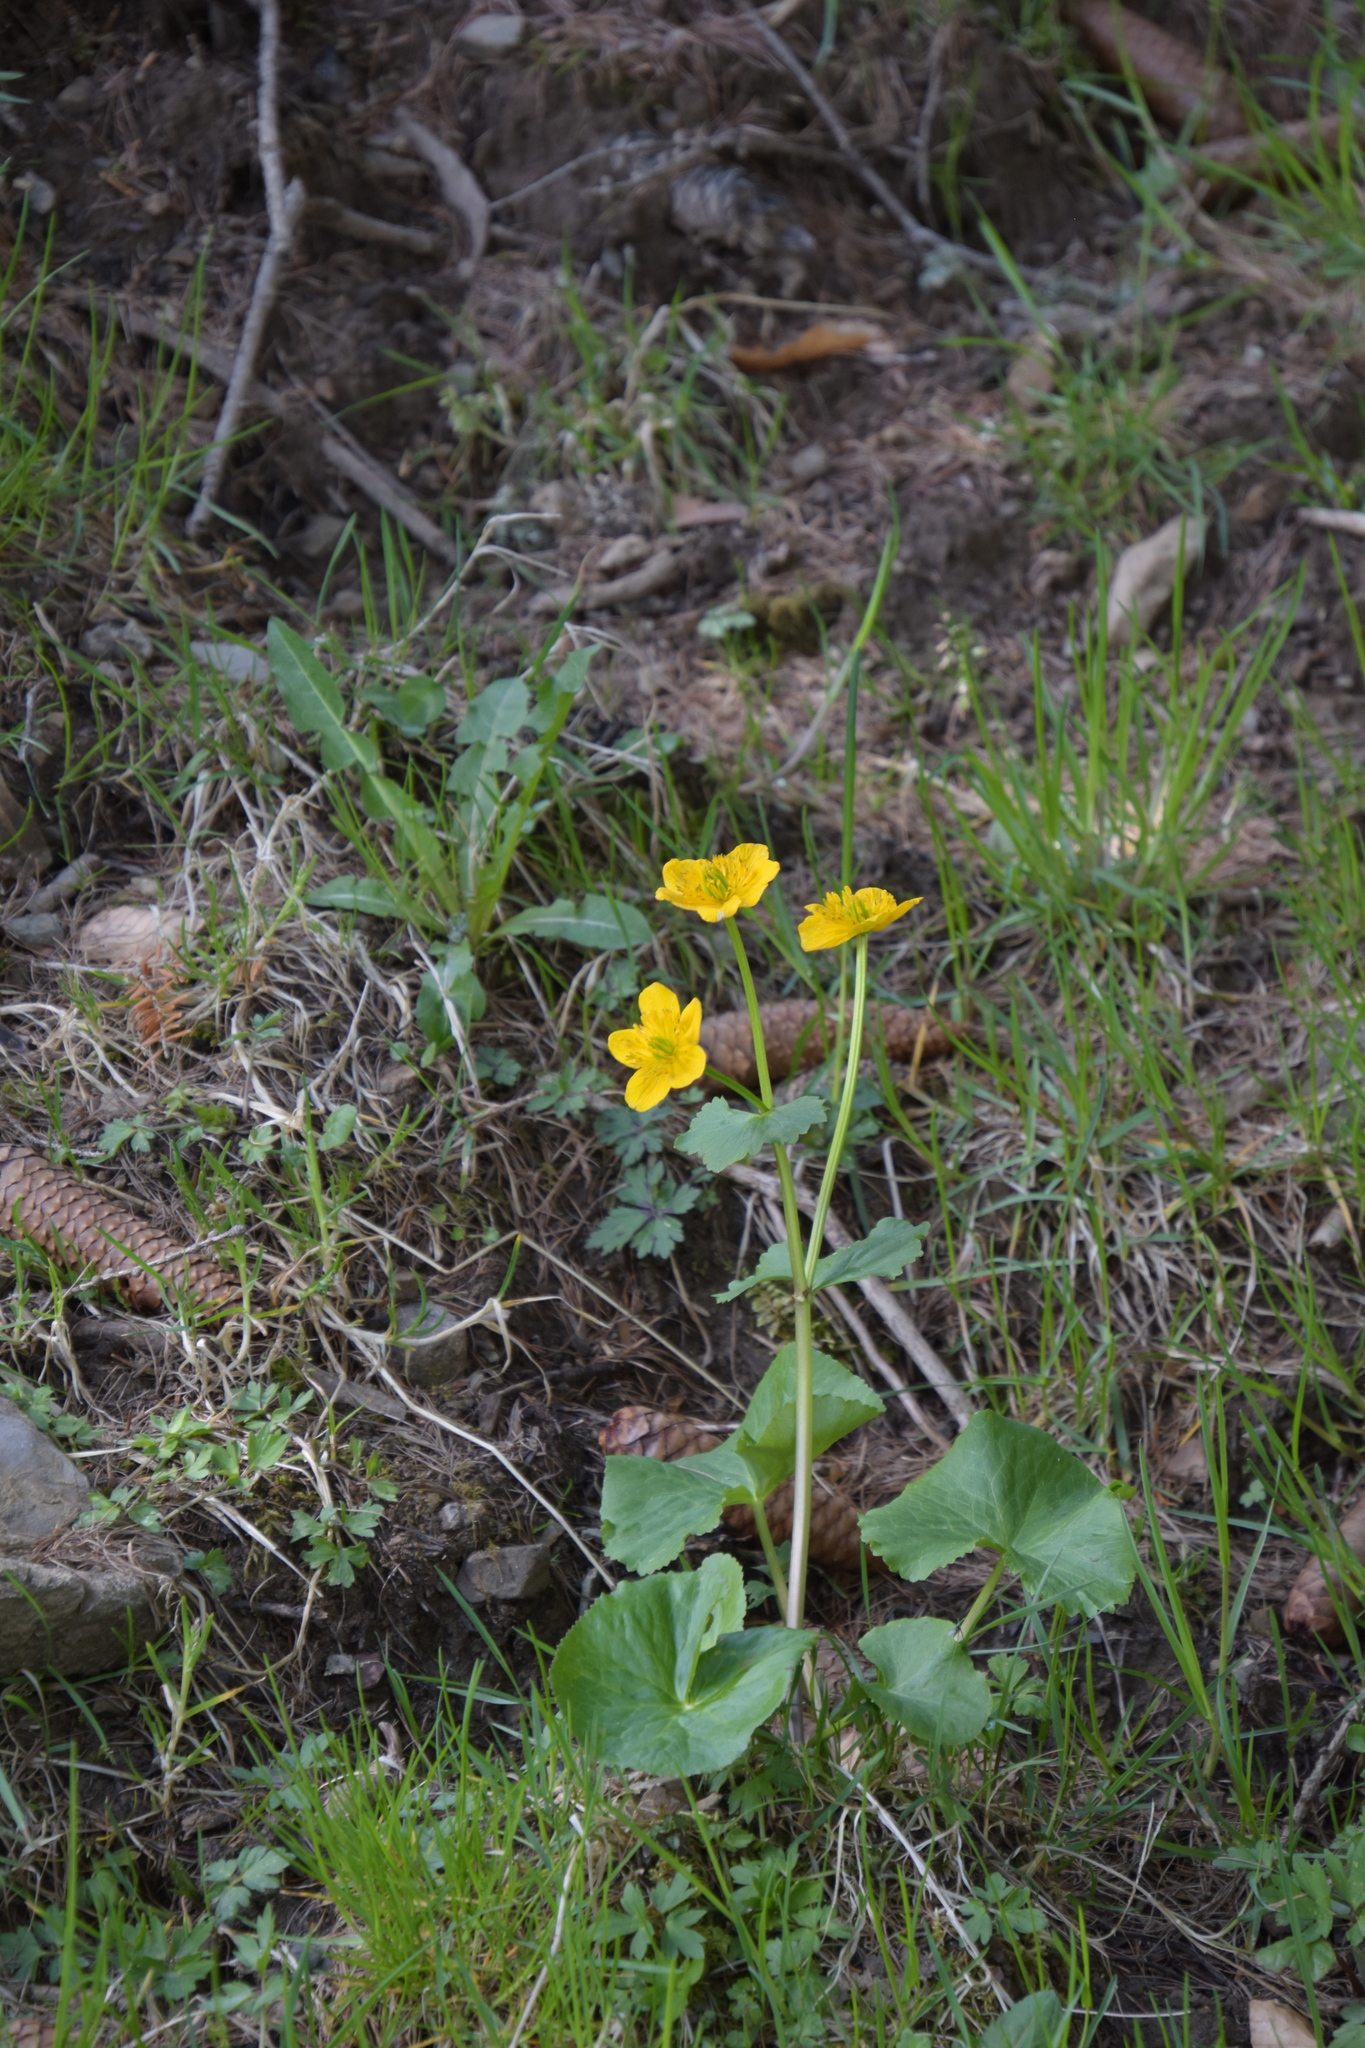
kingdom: Plantae
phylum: Tracheophyta
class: Magnoliopsida
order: Ranunculales
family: Ranunculaceae
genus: Caltha
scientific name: Caltha palustris
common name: Marsh marigold
